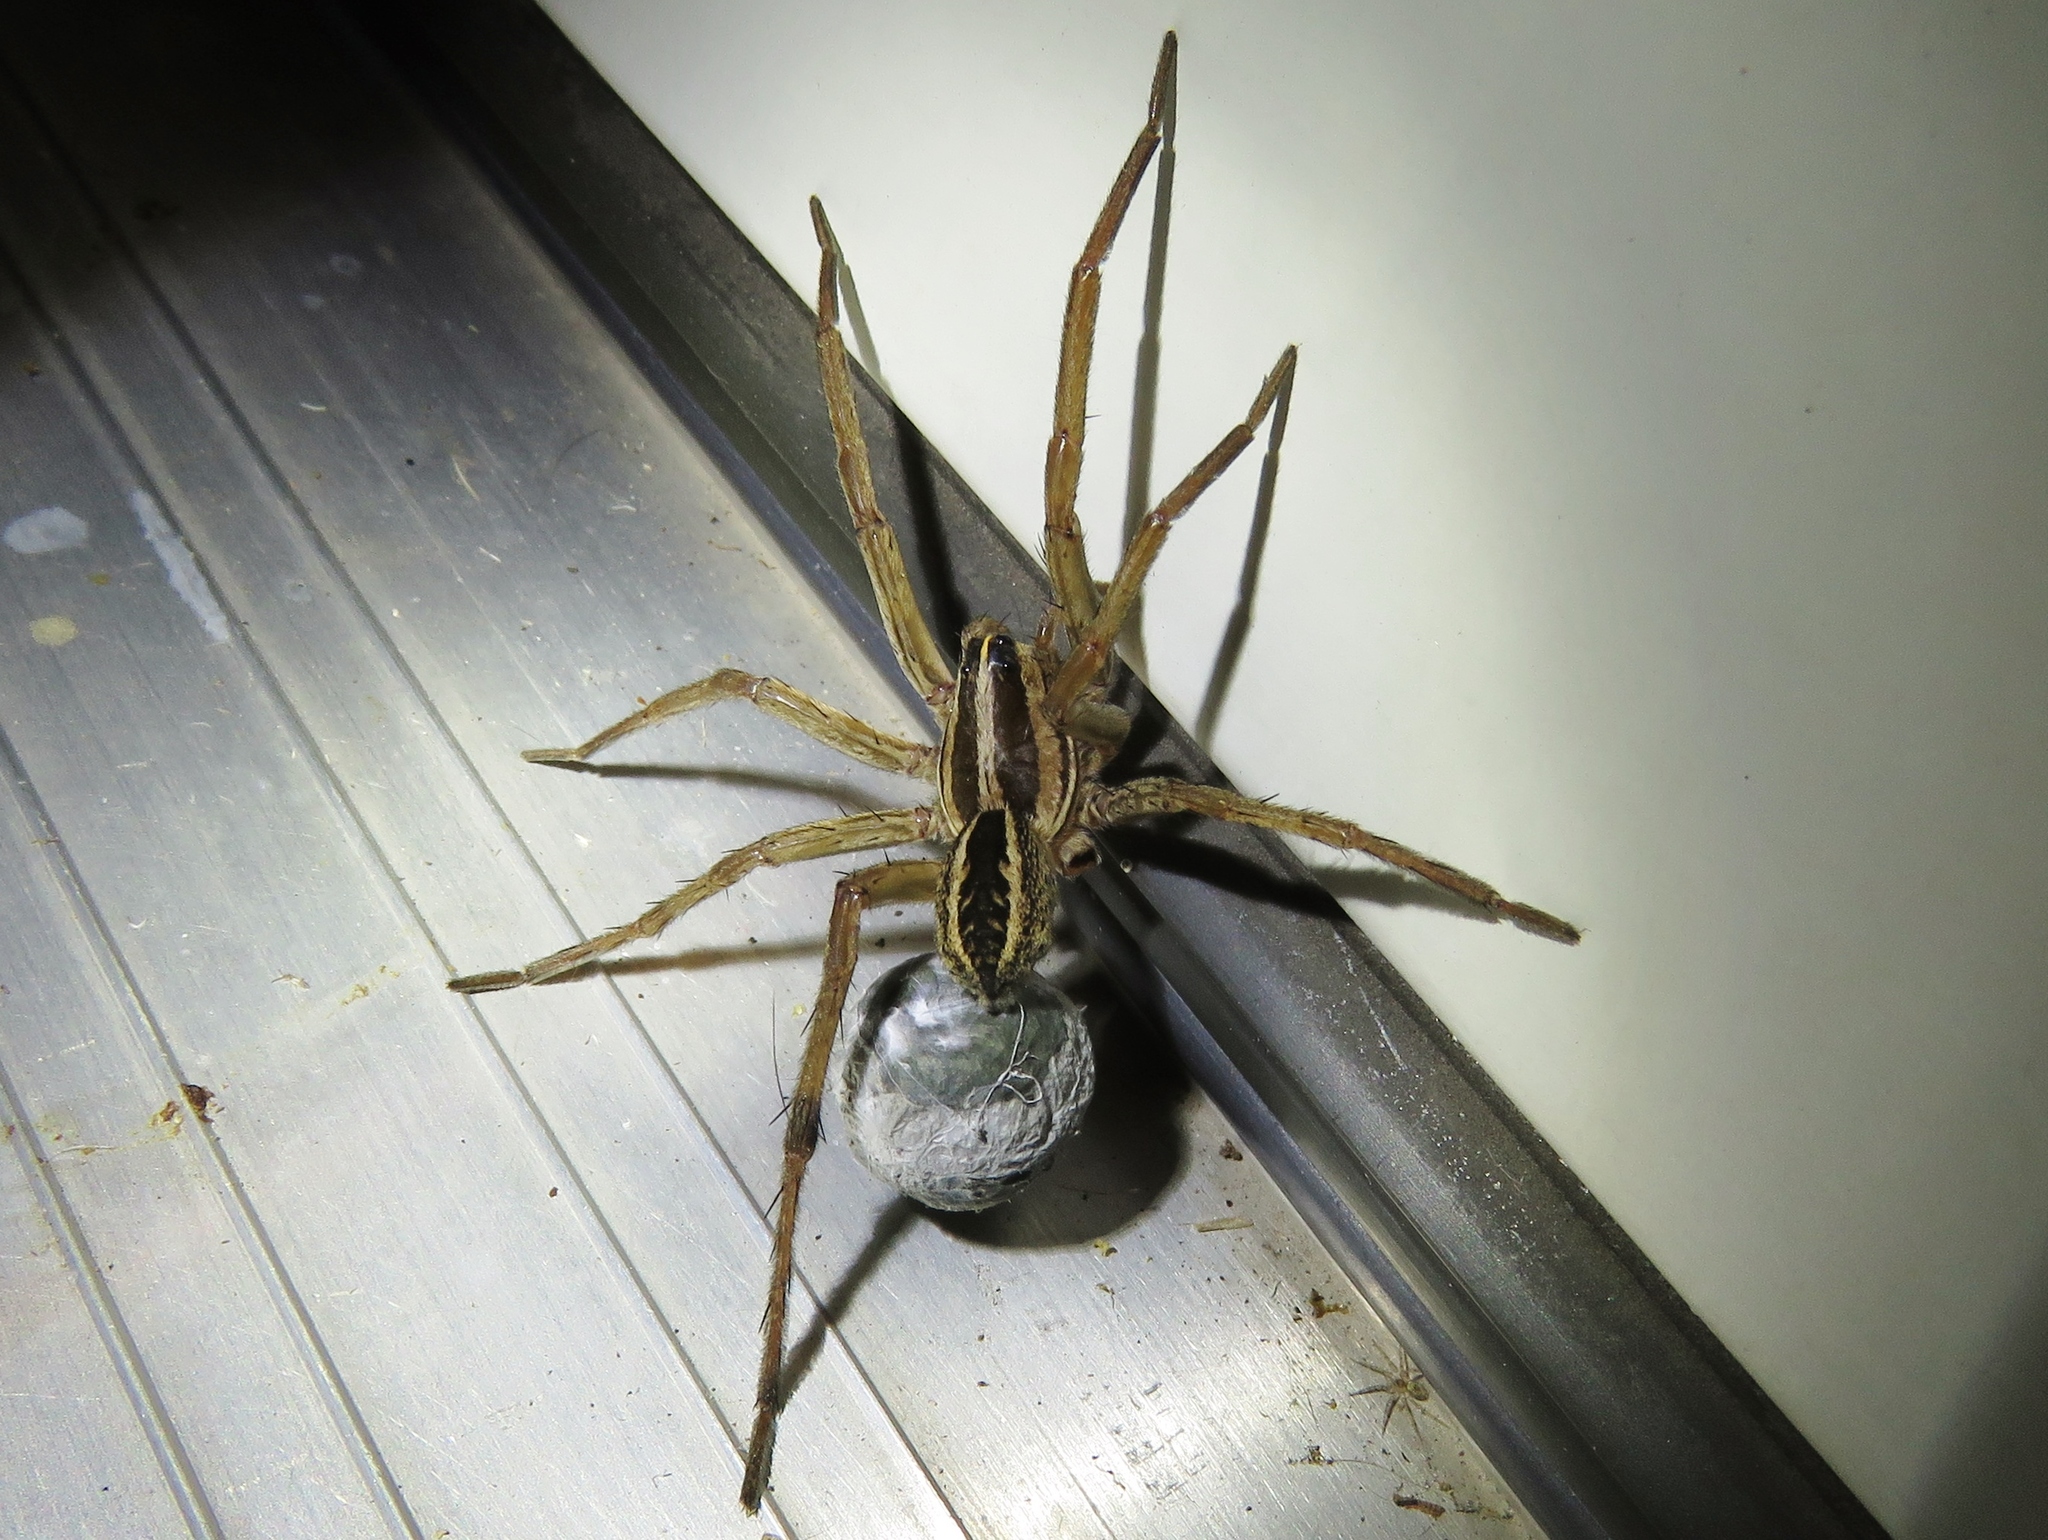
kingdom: Animalia
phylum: Arthropoda
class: Arachnida
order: Araneae
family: Lycosidae
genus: Rabidosa
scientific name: Rabidosa rabida
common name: Rabid wolf spider
